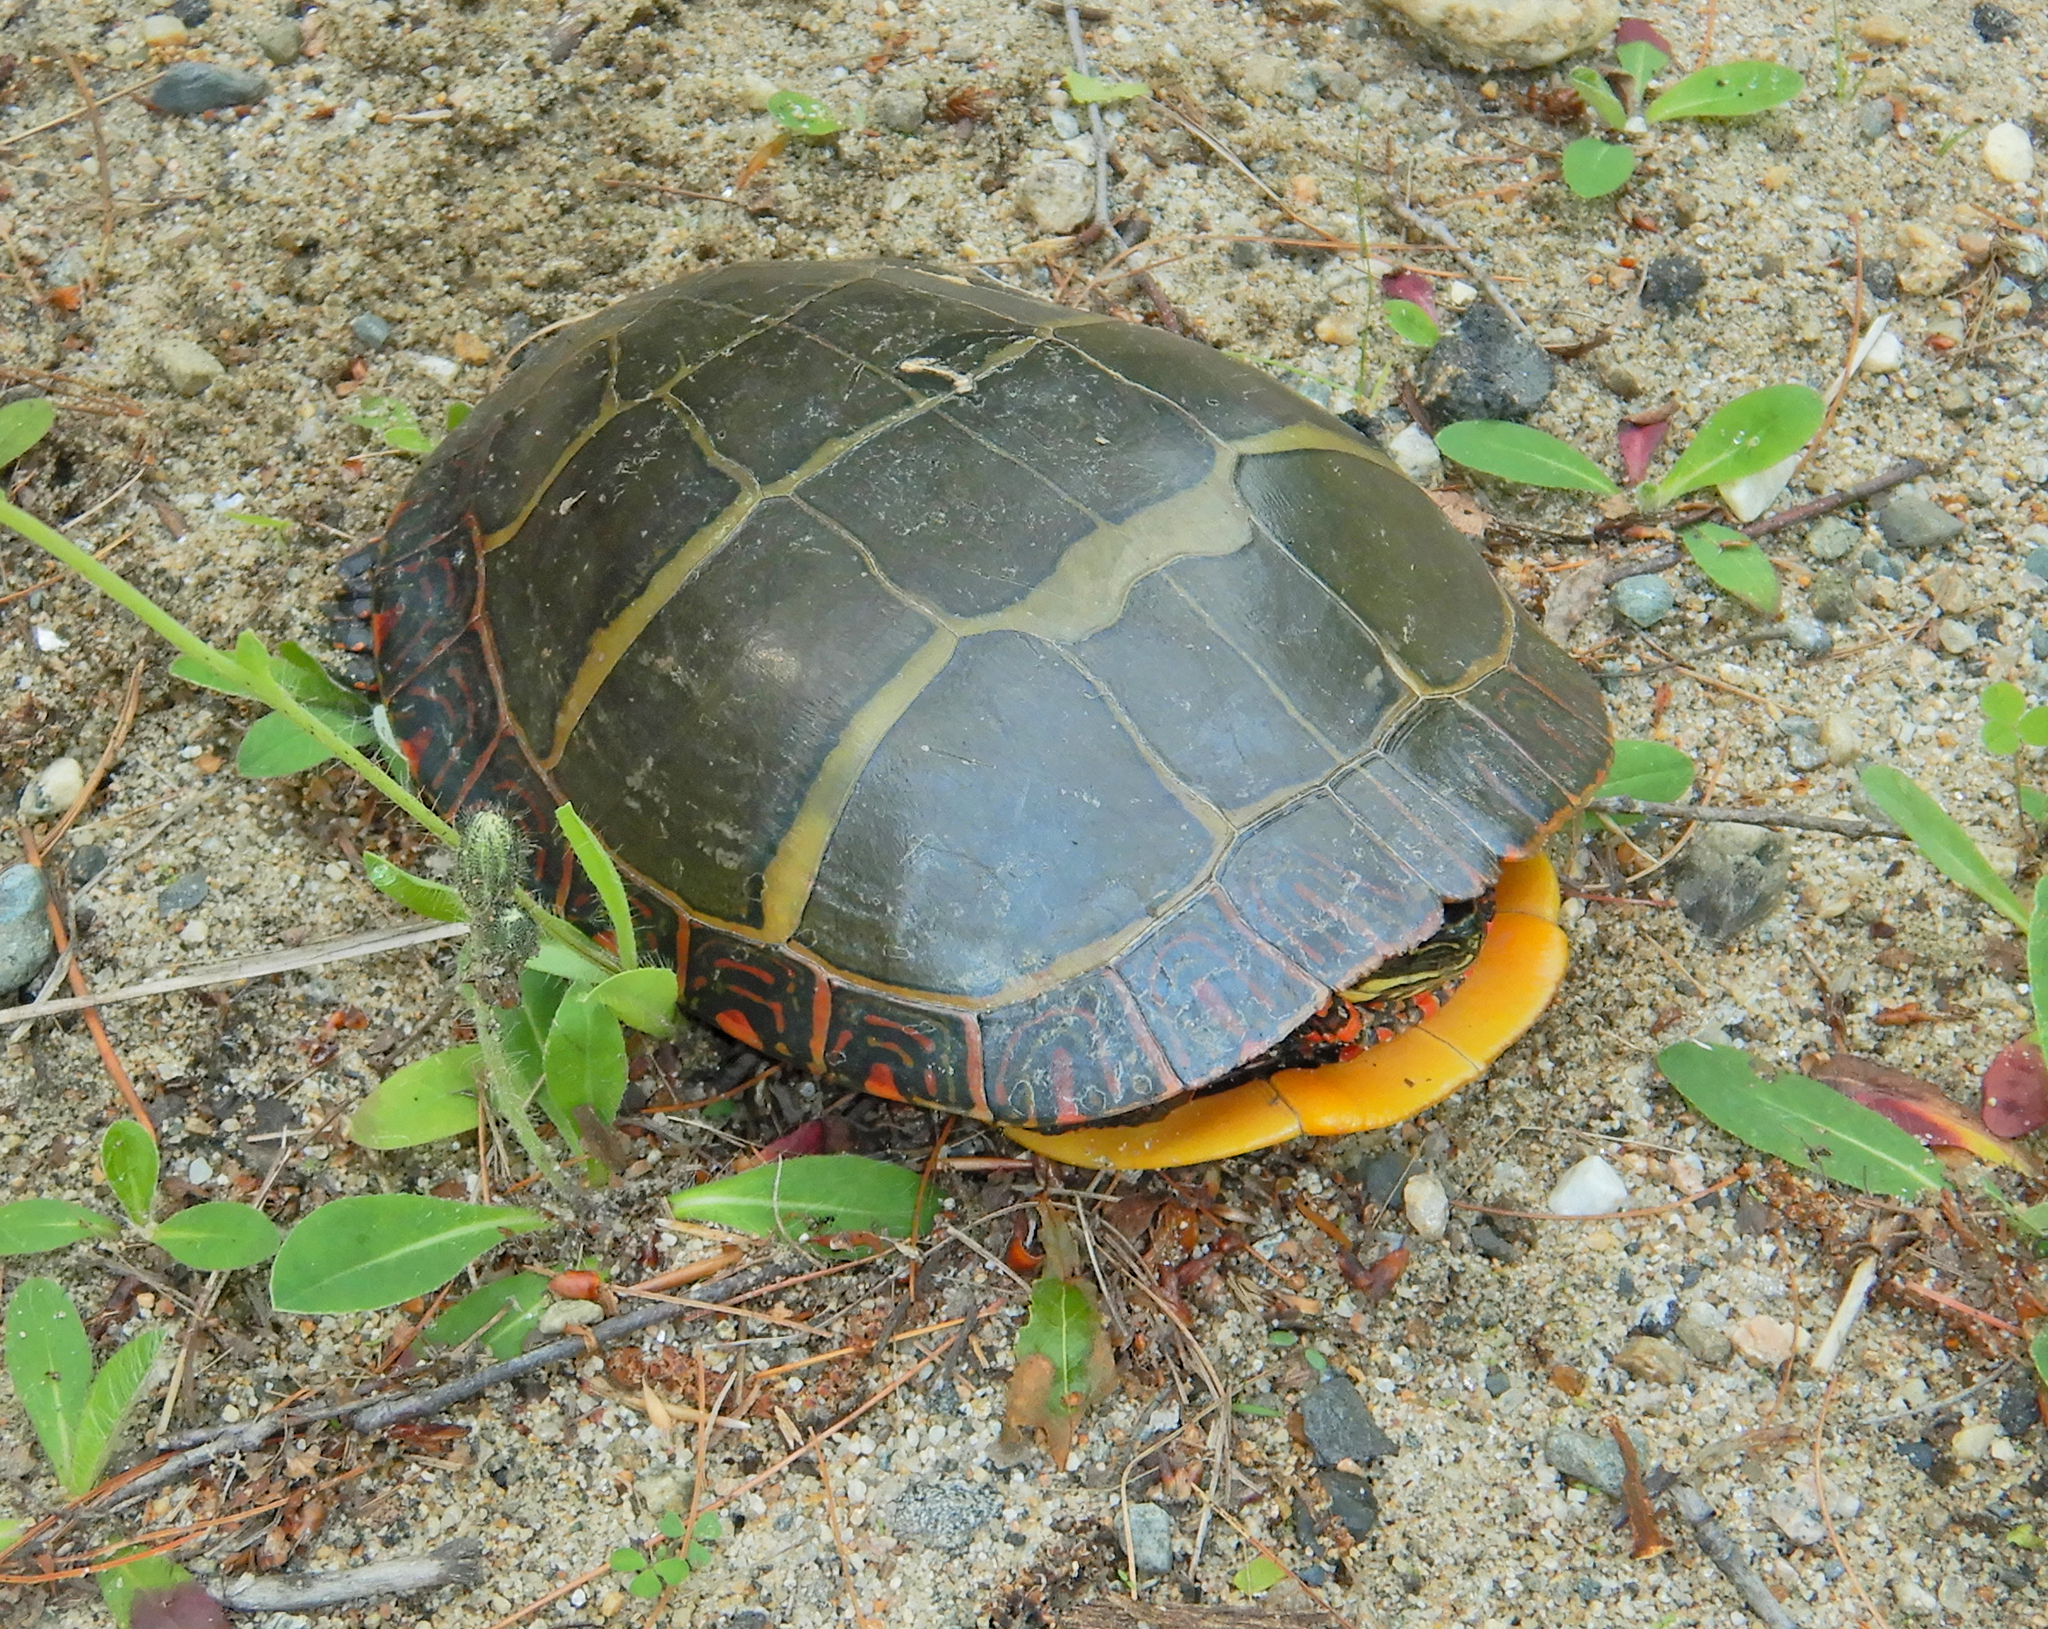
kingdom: Animalia
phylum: Chordata
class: Testudines
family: Emydidae
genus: Chrysemys
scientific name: Chrysemys picta
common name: Painted turtle
